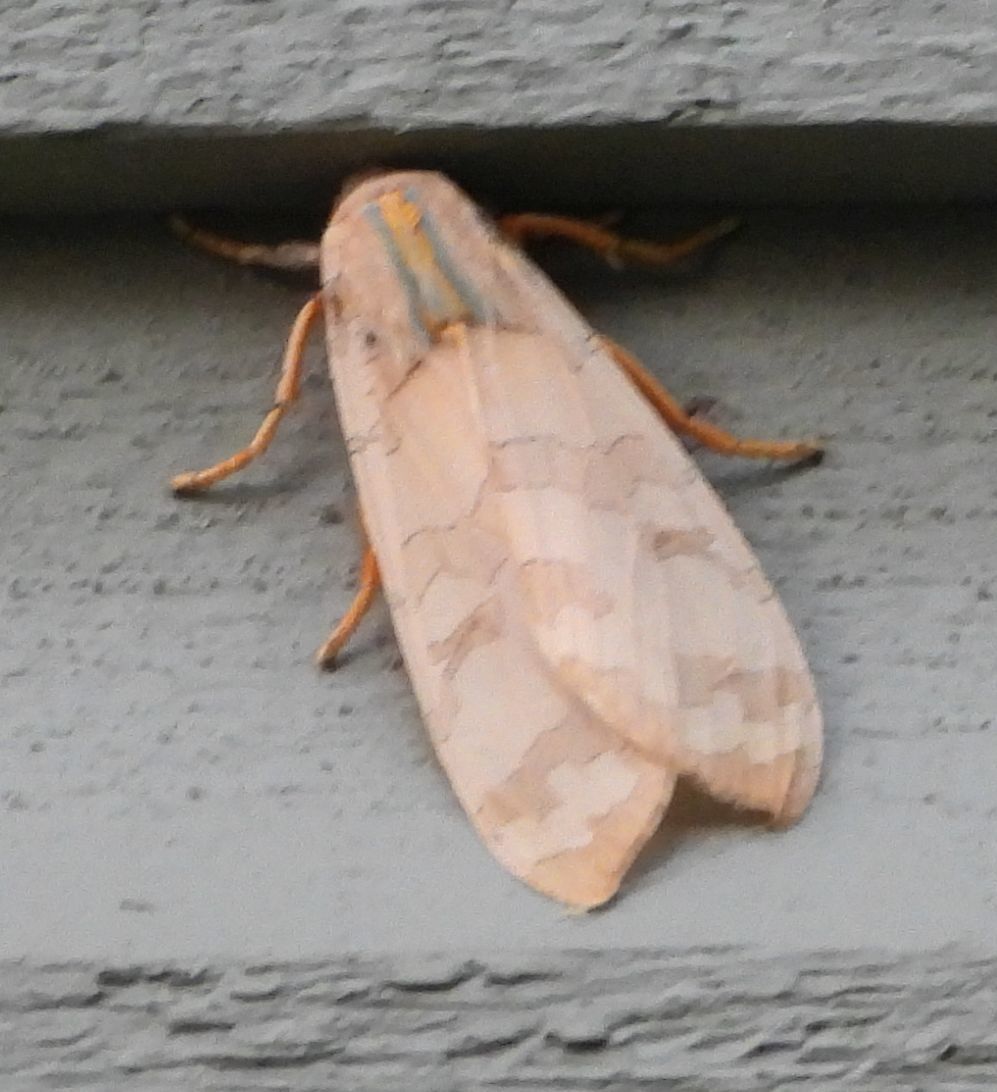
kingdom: Animalia
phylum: Arthropoda
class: Insecta
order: Lepidoptera
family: Erebidae
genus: Halysidota
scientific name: Halysidota tessellaris
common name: Banded tussock moth
